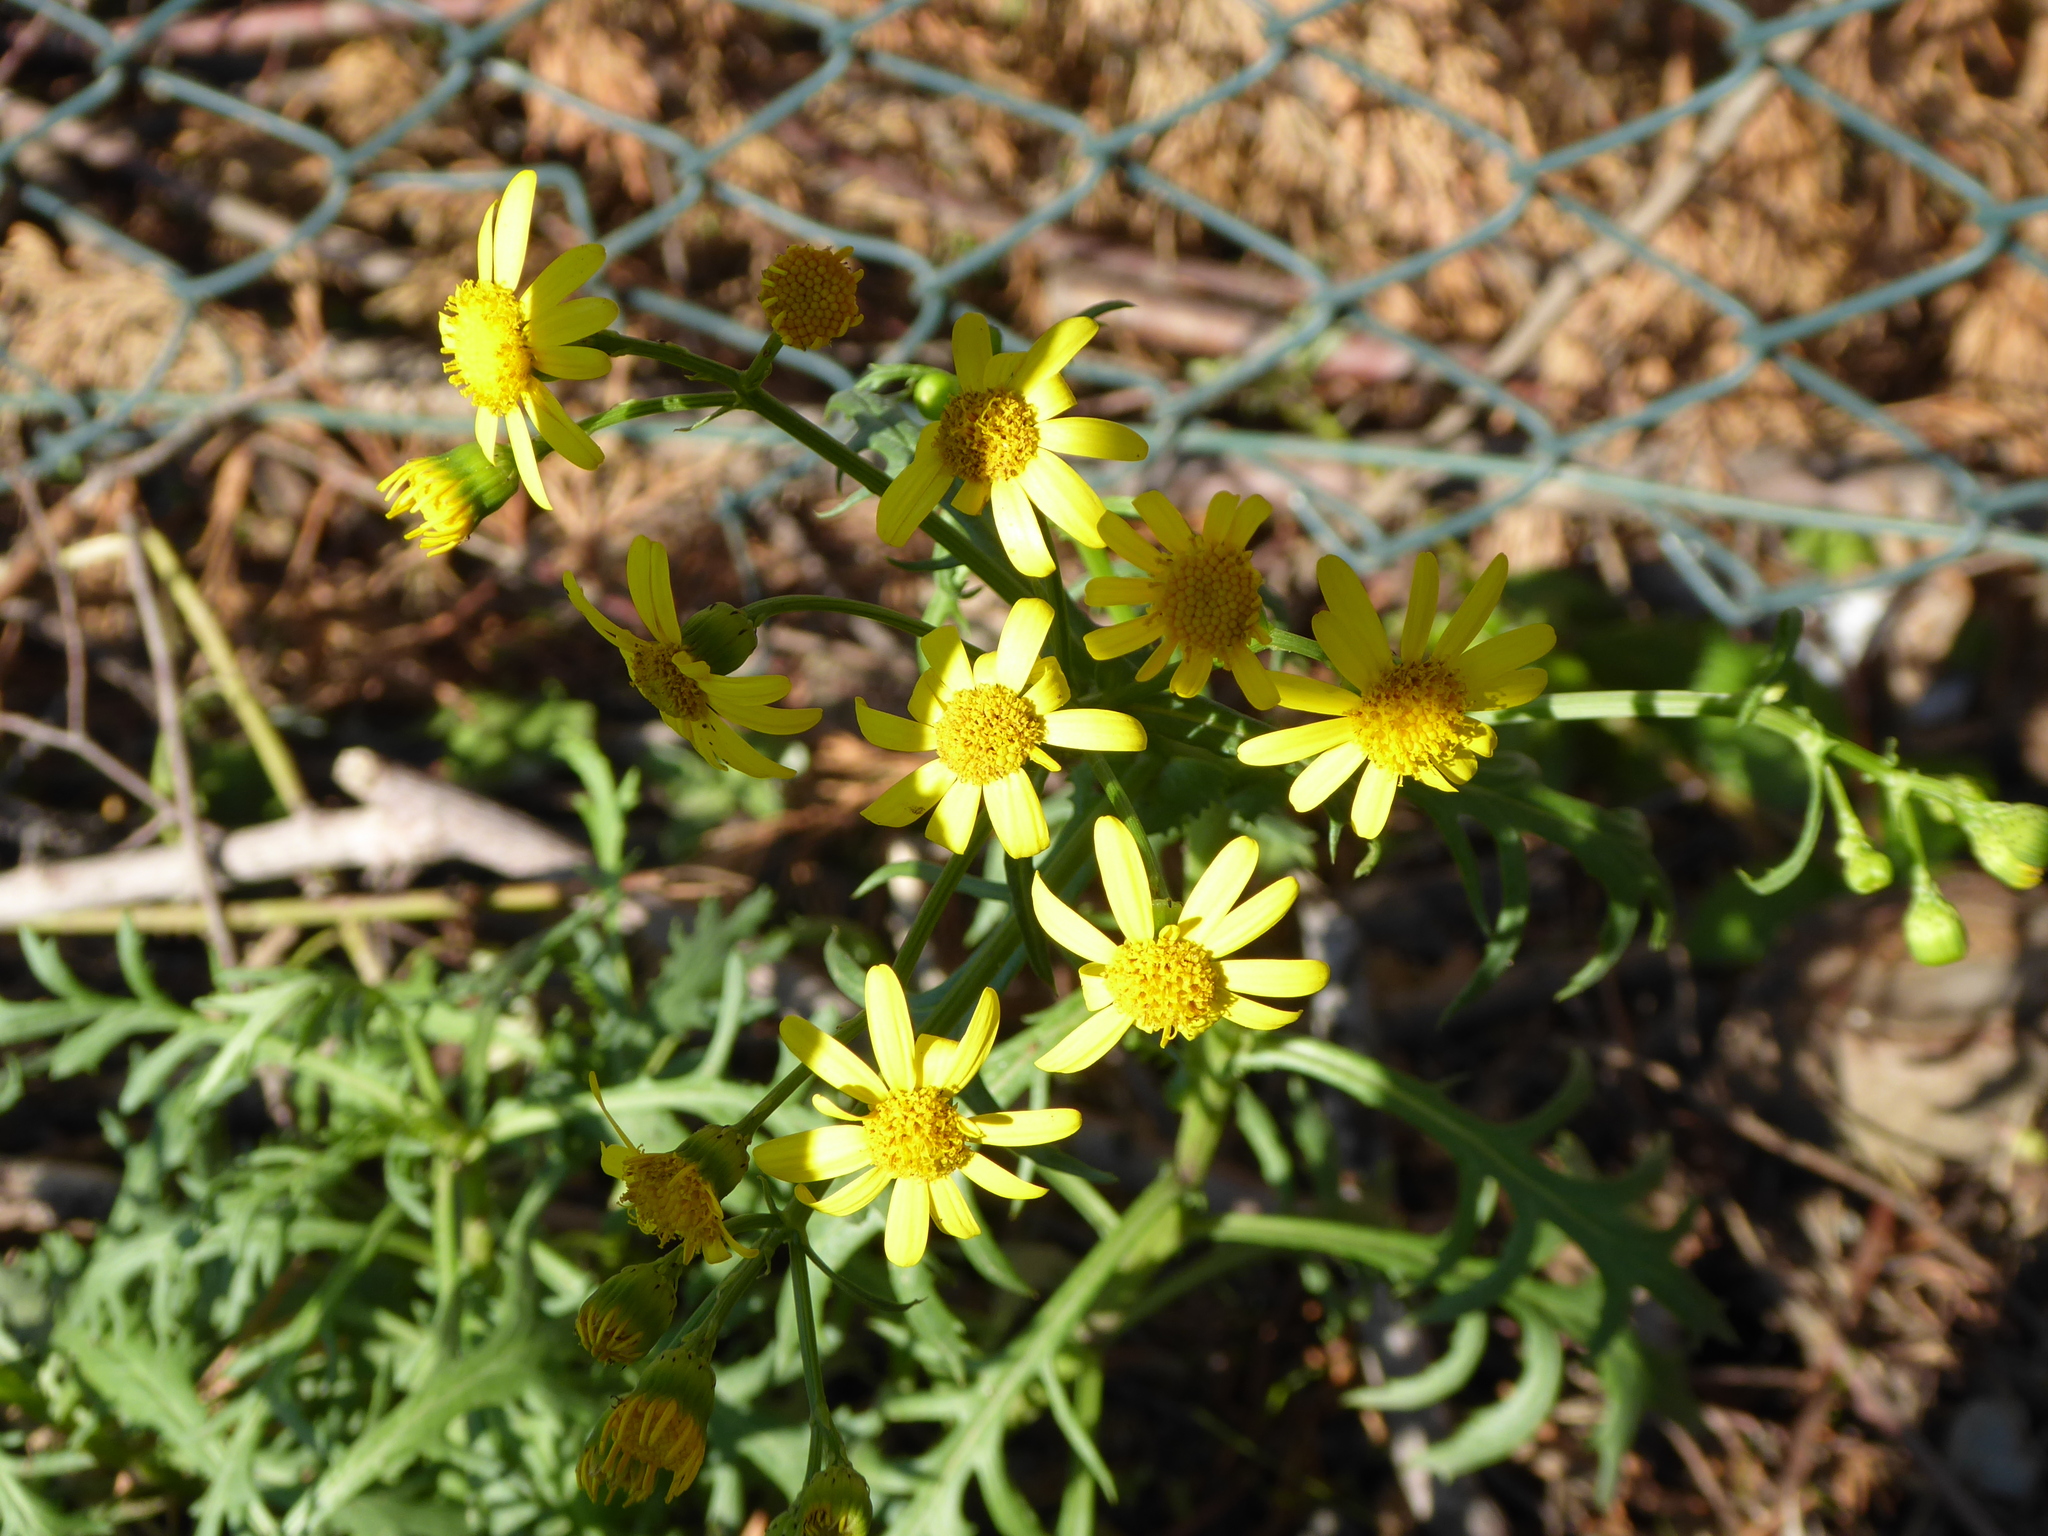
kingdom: Plantae
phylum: Tracheophyta
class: Magnoliopsida
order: Asterales
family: Asteraceae
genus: Senecio
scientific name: Senecio squalidus
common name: Oxford ragwort
